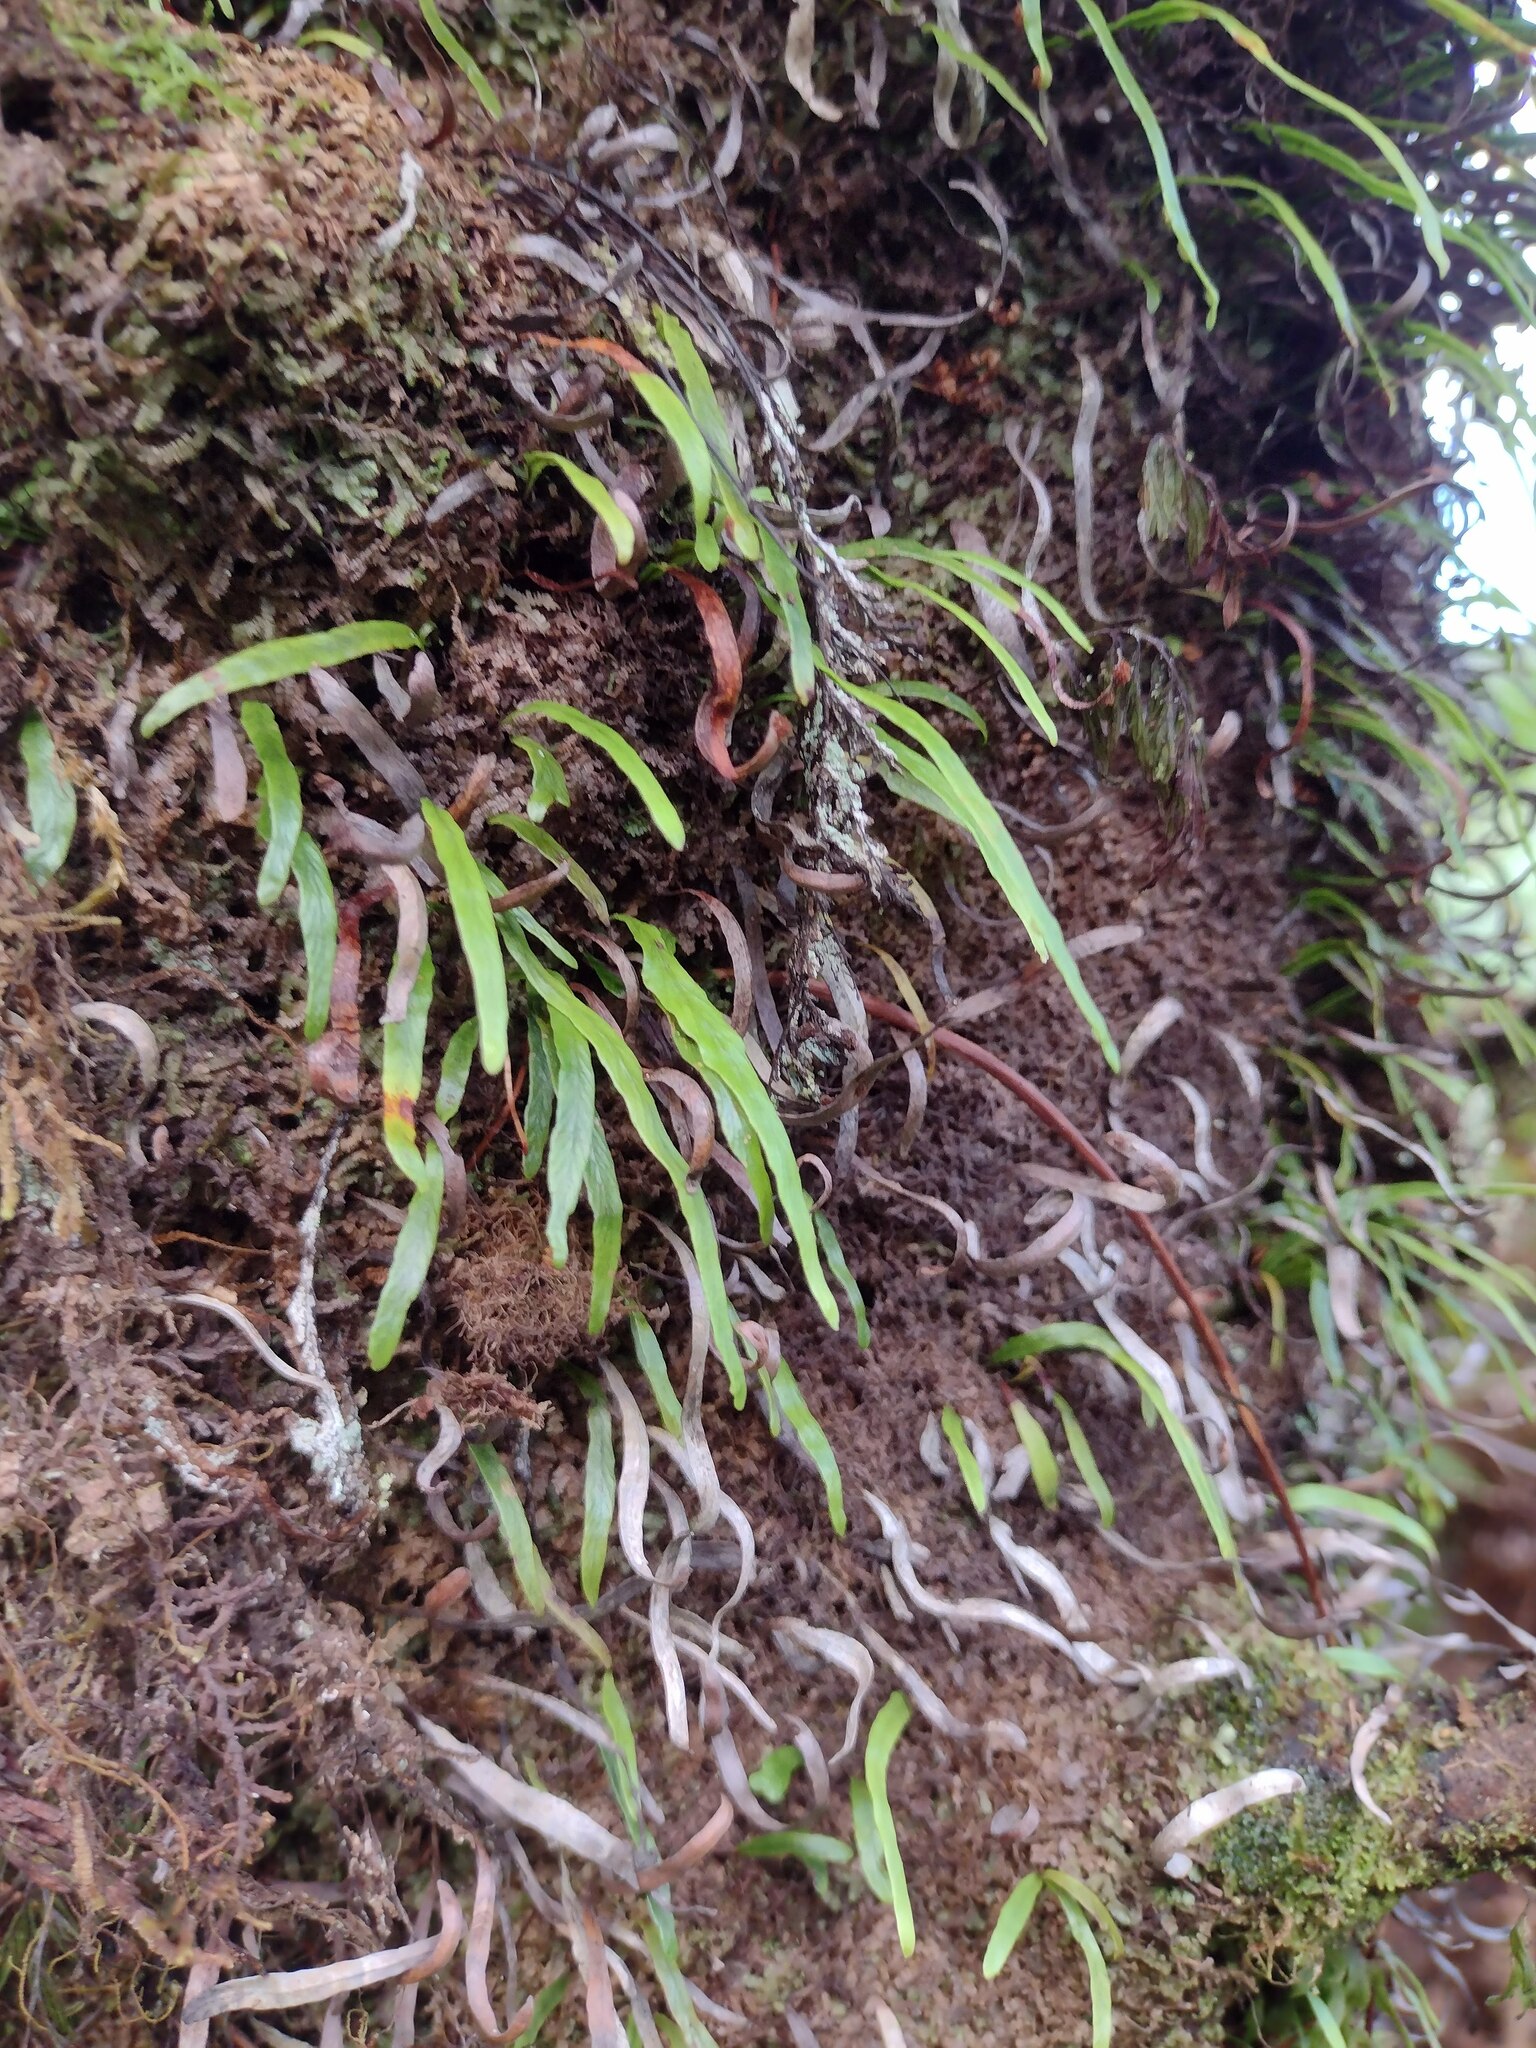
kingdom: Plantae
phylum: Tracheophyta
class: Polypodiopsida
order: Polypodiales
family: Polypodiaceae
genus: Adenophorus
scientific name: Adenophorus tenellus
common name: Kolokolo
